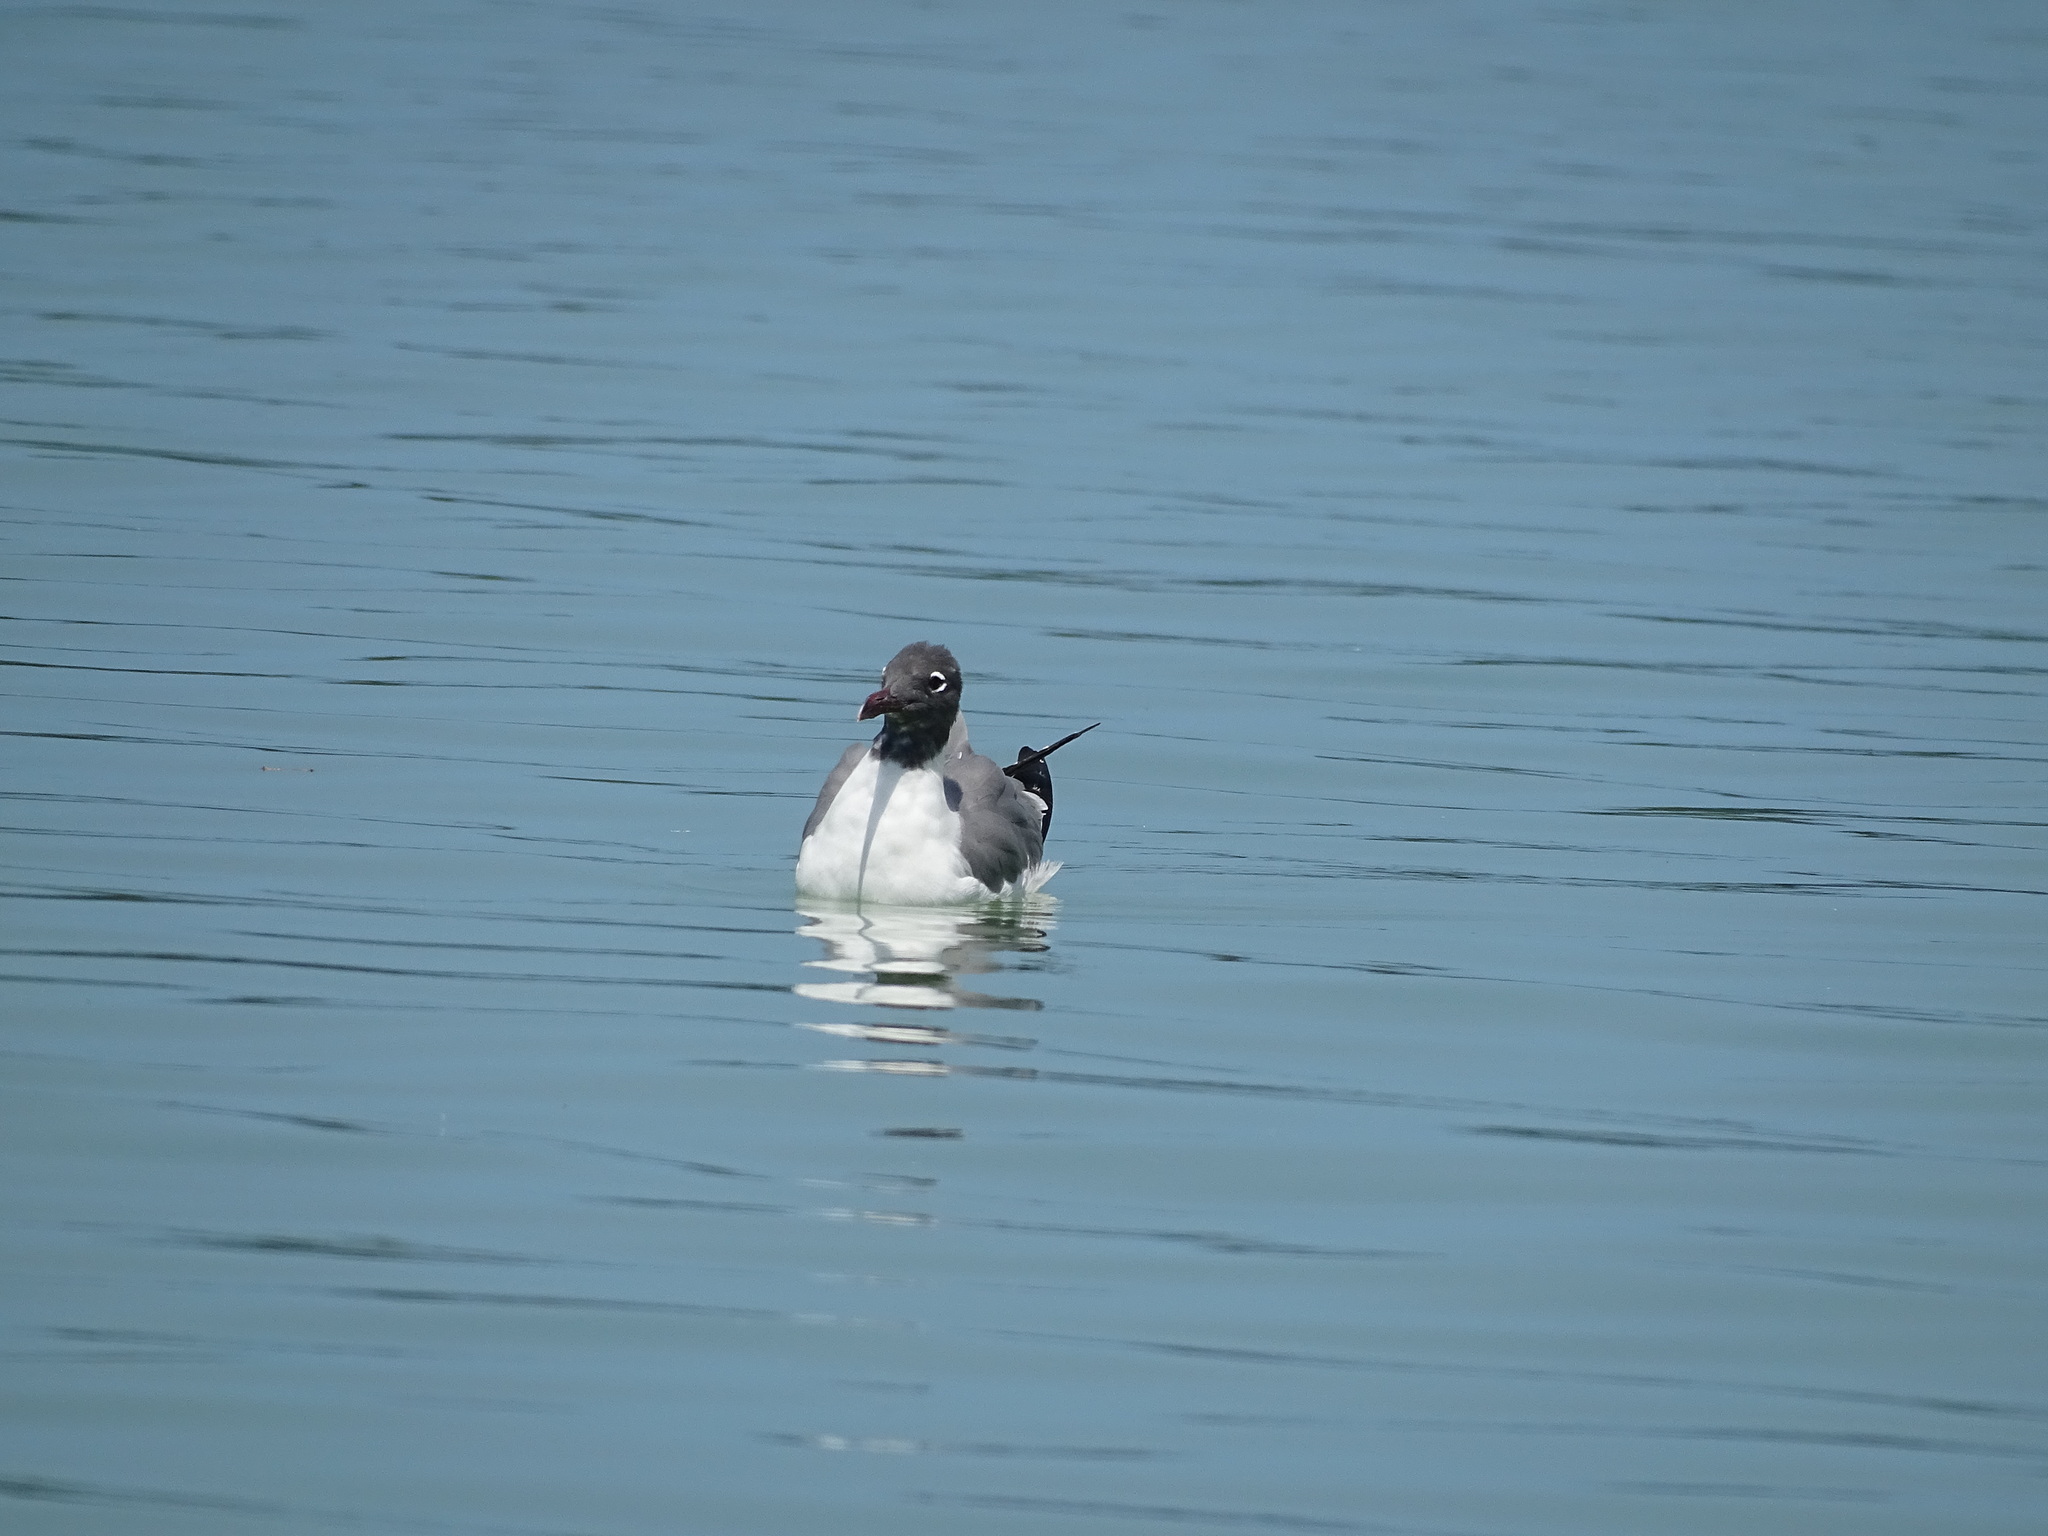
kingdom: Animalia
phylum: Chordata
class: Aves
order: Charadriiformes
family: Laridae
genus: Leucophaeus
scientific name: Leucophaeus atricilla
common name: Laughing gull
